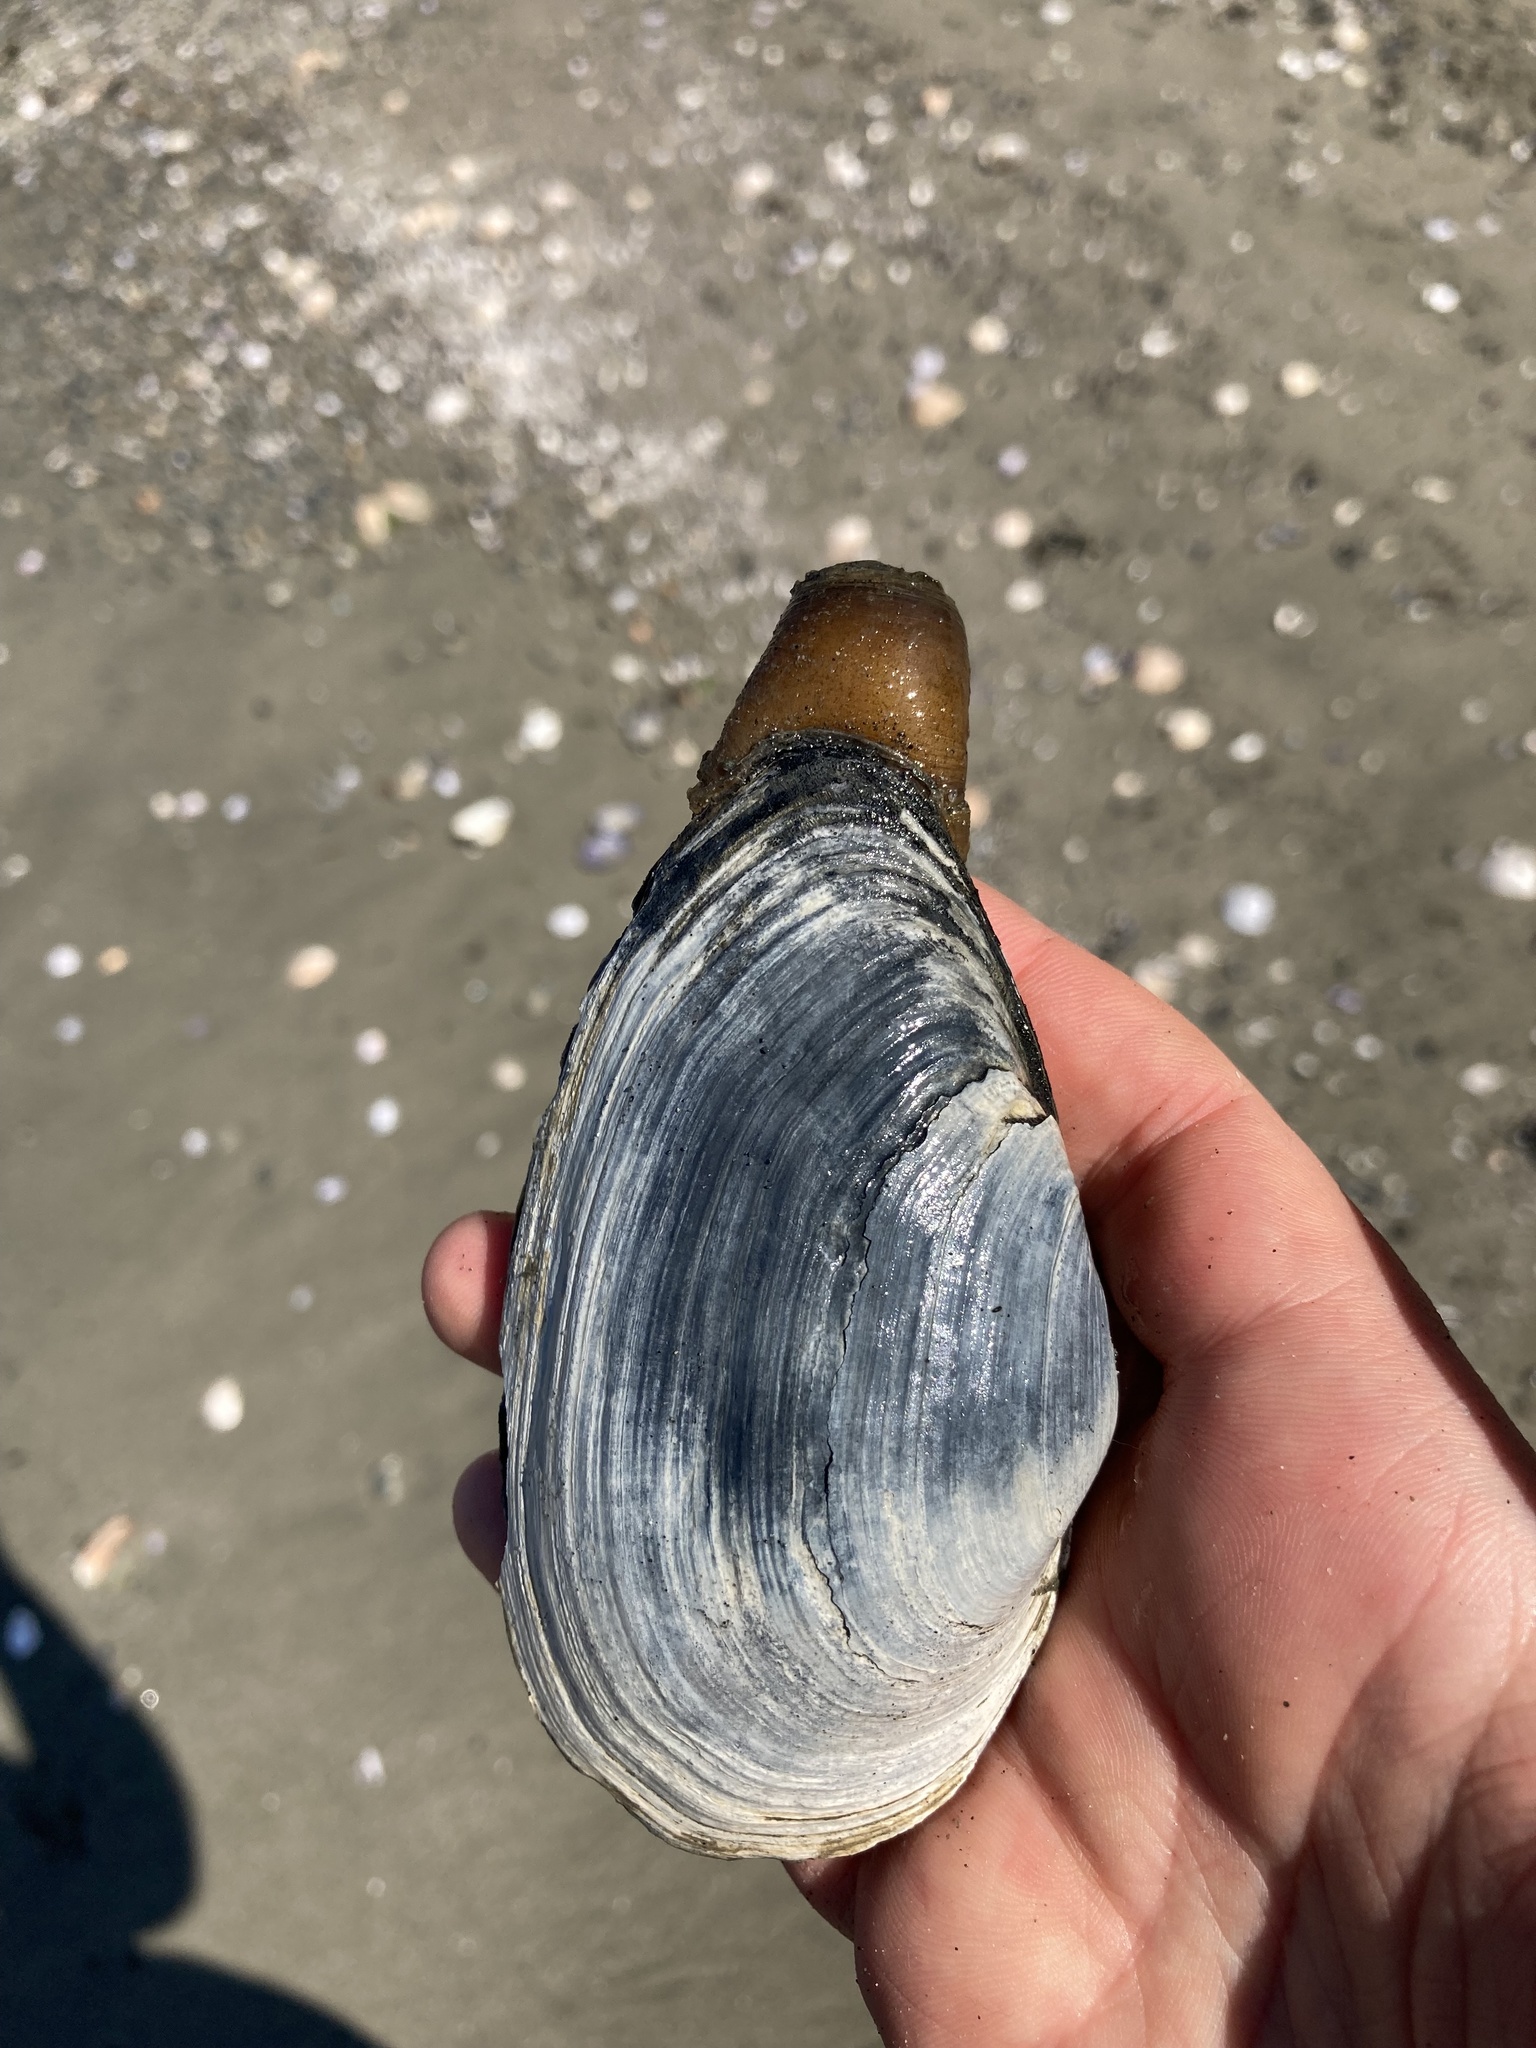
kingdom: Animalia
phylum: Mollusca
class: Bivalvia
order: Myida
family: Myidae
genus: Mya
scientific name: Mya arenaria
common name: Soft-shelled clam
